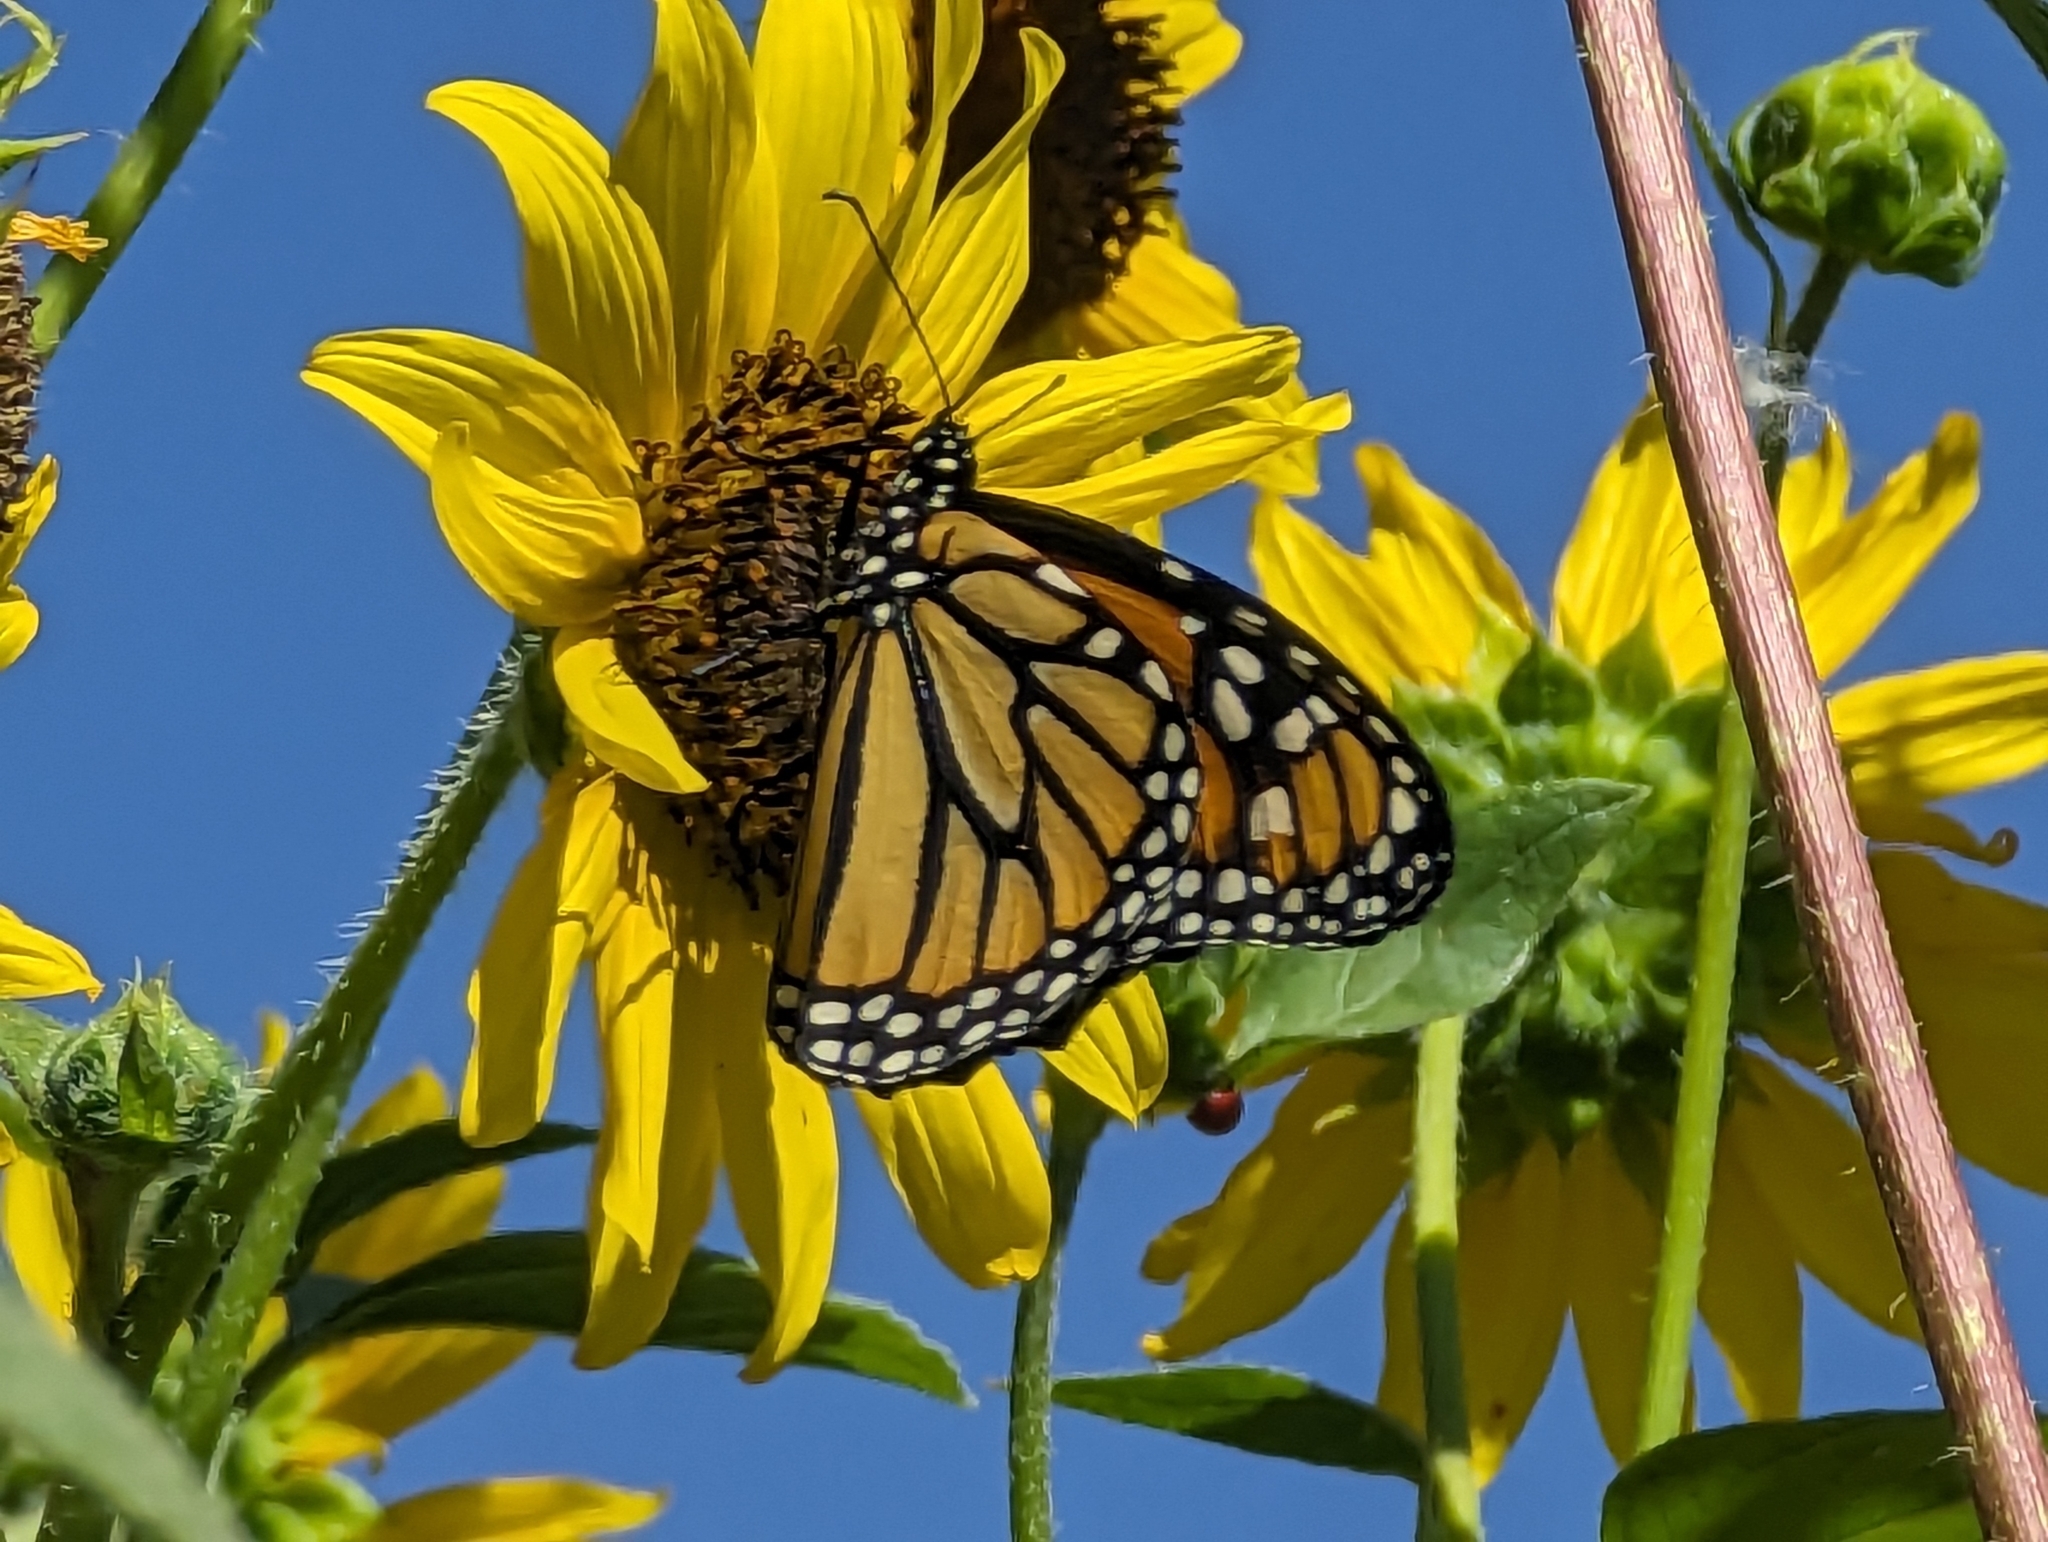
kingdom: Animalia
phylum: Arthropoda
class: Insecta
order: Lepidoptera
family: Nymphalidae
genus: Danaus
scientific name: Danaus plexippus
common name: Monarch
